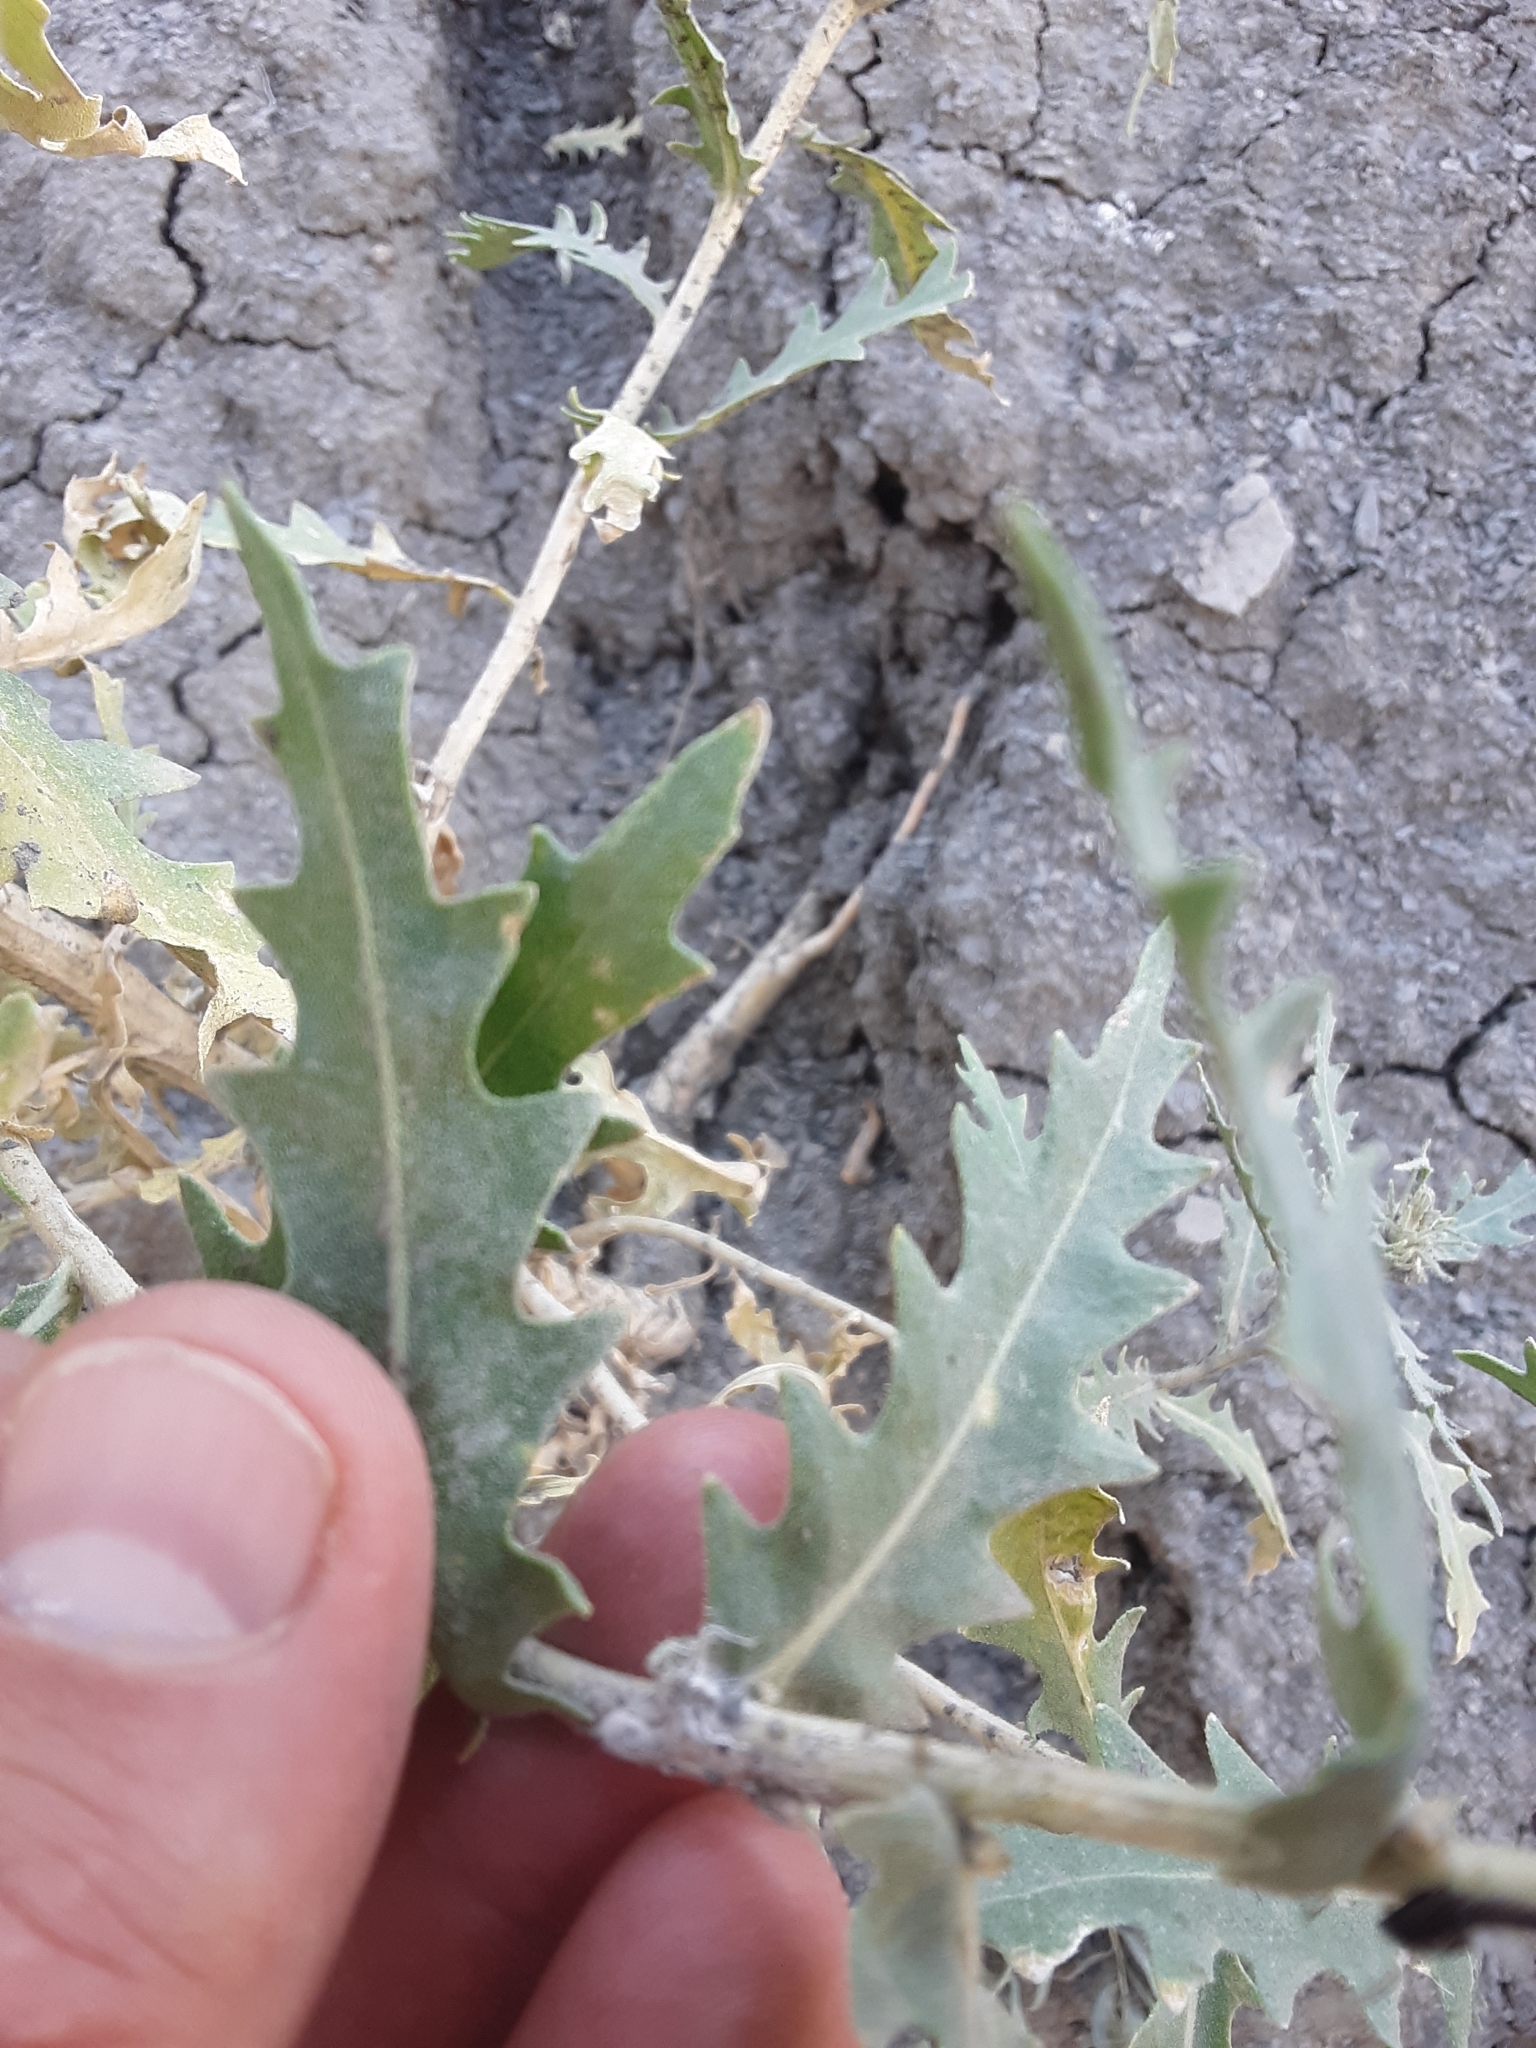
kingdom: Plantae
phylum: Tracheophyta
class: Magnoliopsida
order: Cornales
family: Loasaceae
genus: Mentzelia
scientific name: Mentzelia decapetala
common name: Gumbo-lily
